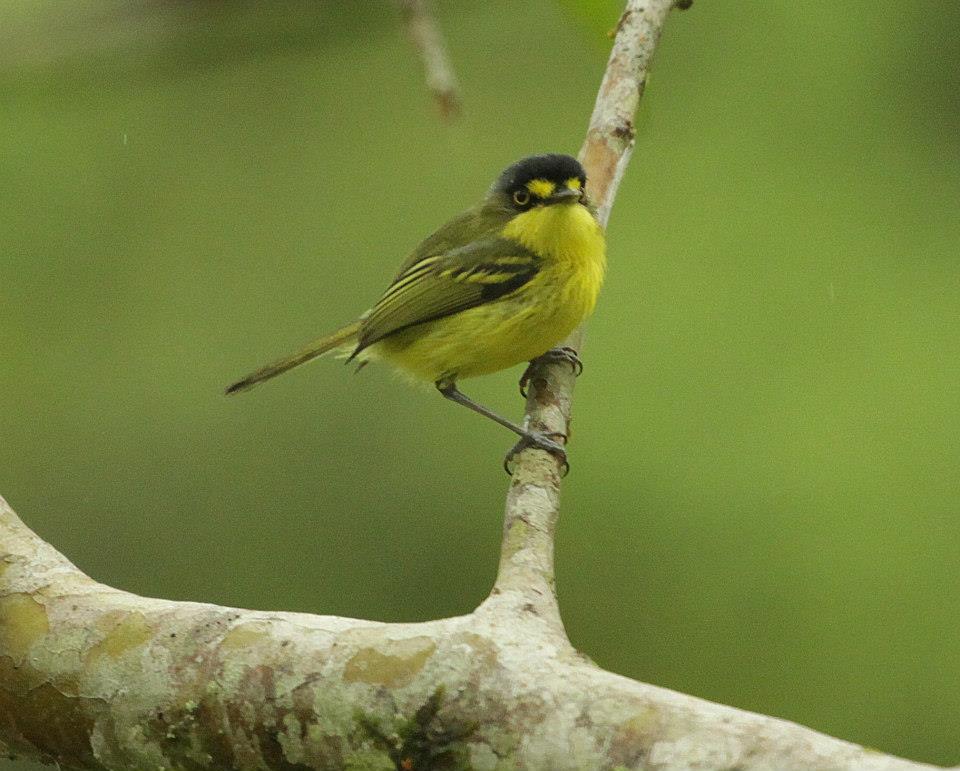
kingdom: Animalia
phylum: Chordata
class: Aves
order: Passeriformes
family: Tyrannidae
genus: Todirostrum
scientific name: Todirostrum poliocephalum
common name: Yellow-lored tody-flycatcher
